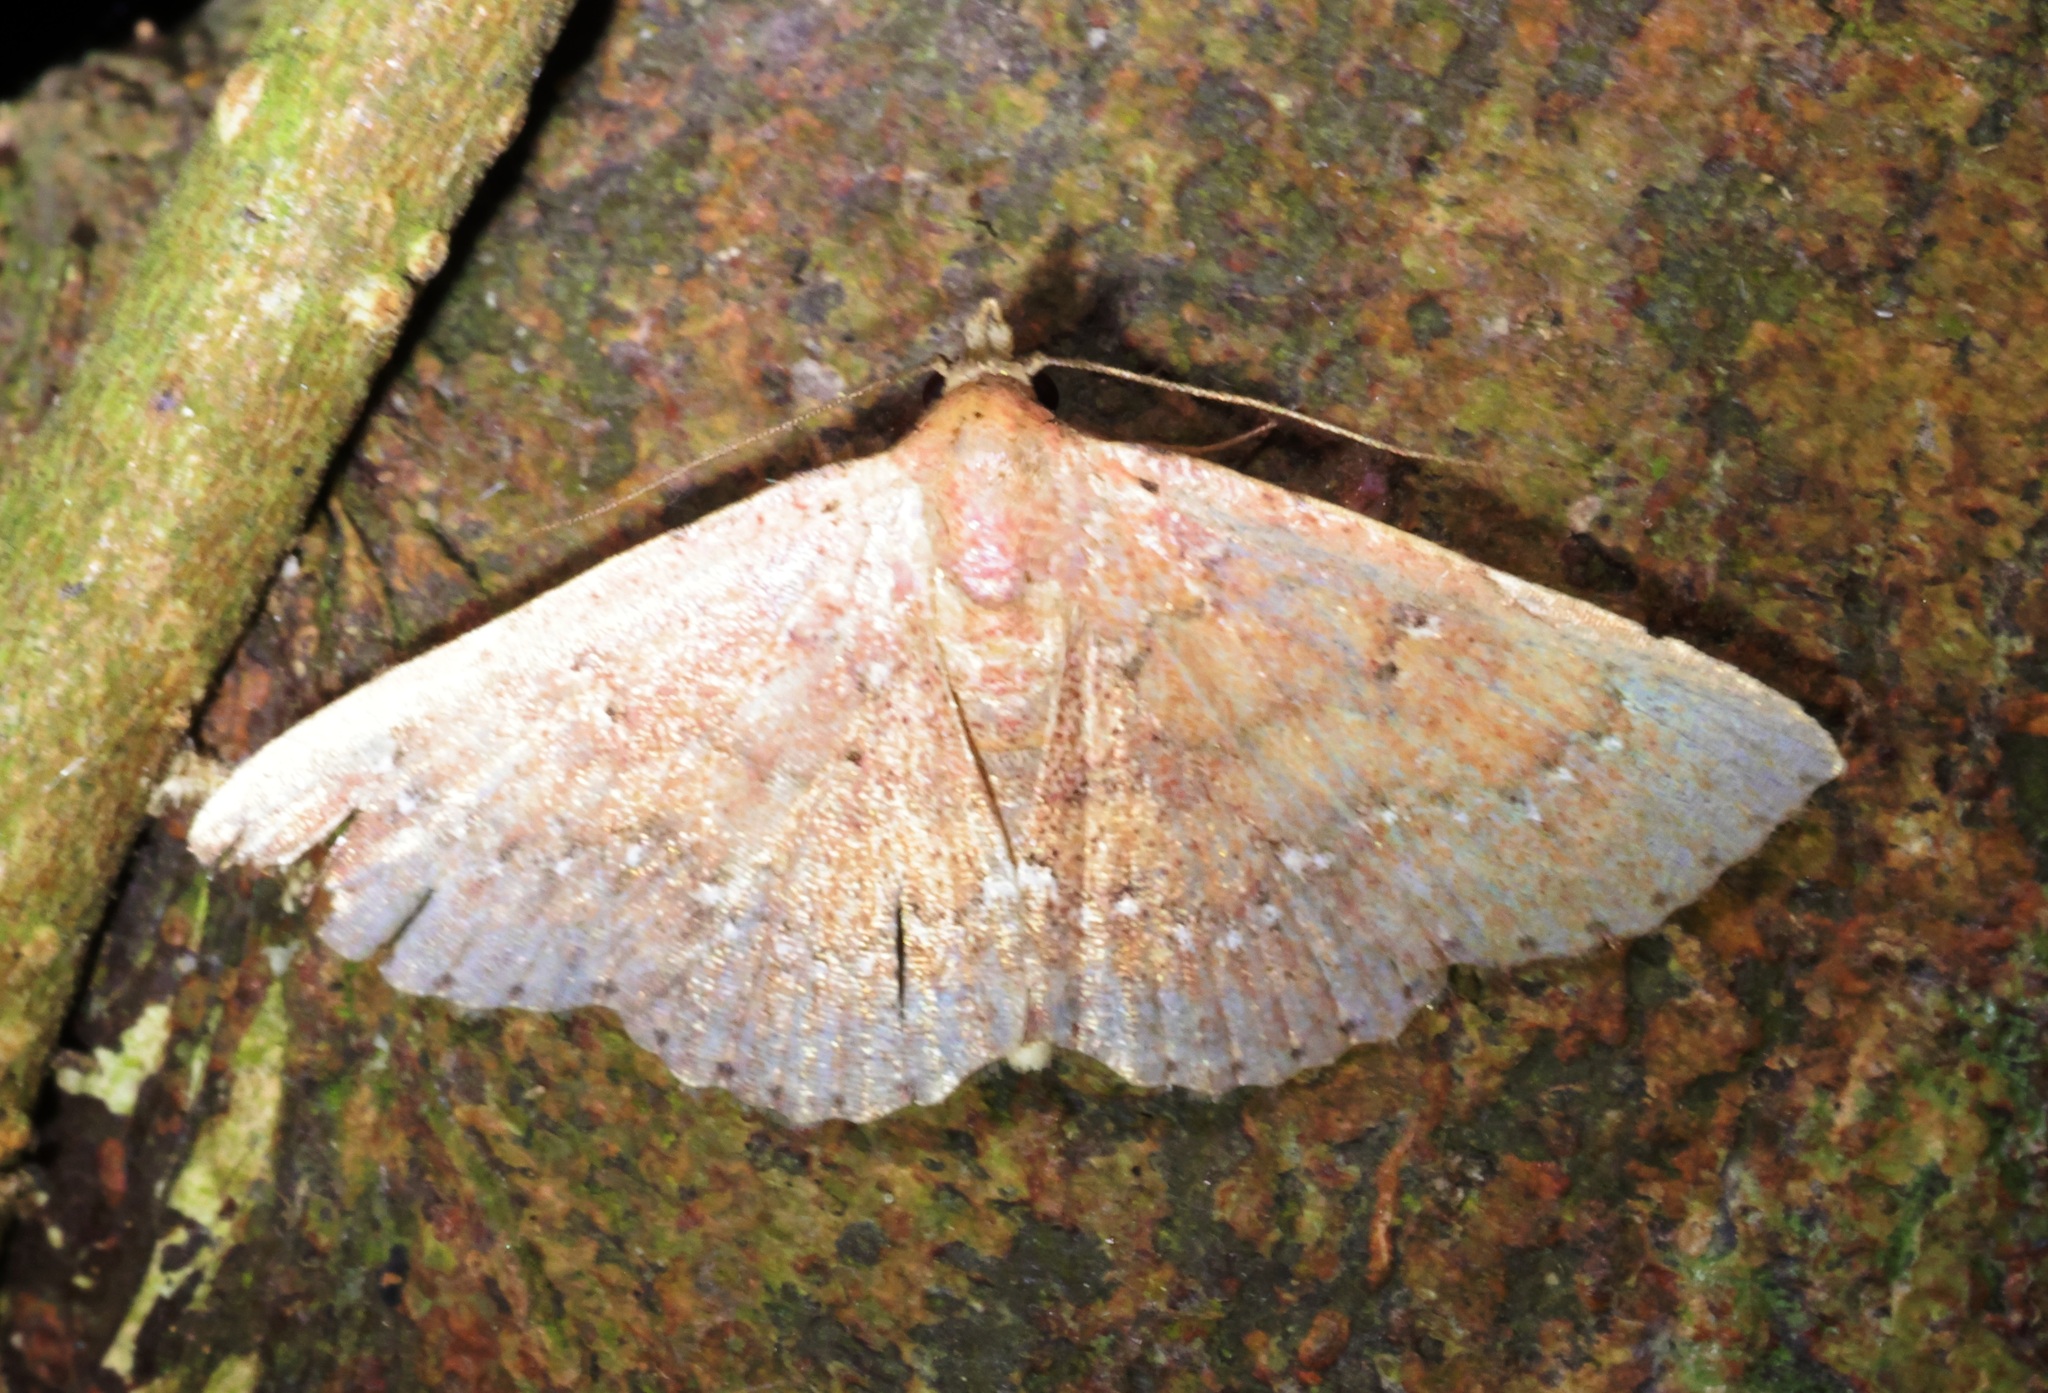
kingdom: Animalia
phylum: Arthropoda
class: Insecta
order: Lepidoptera
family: Noctuidae
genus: Cerynea
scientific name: Cerynea punctilinealis
